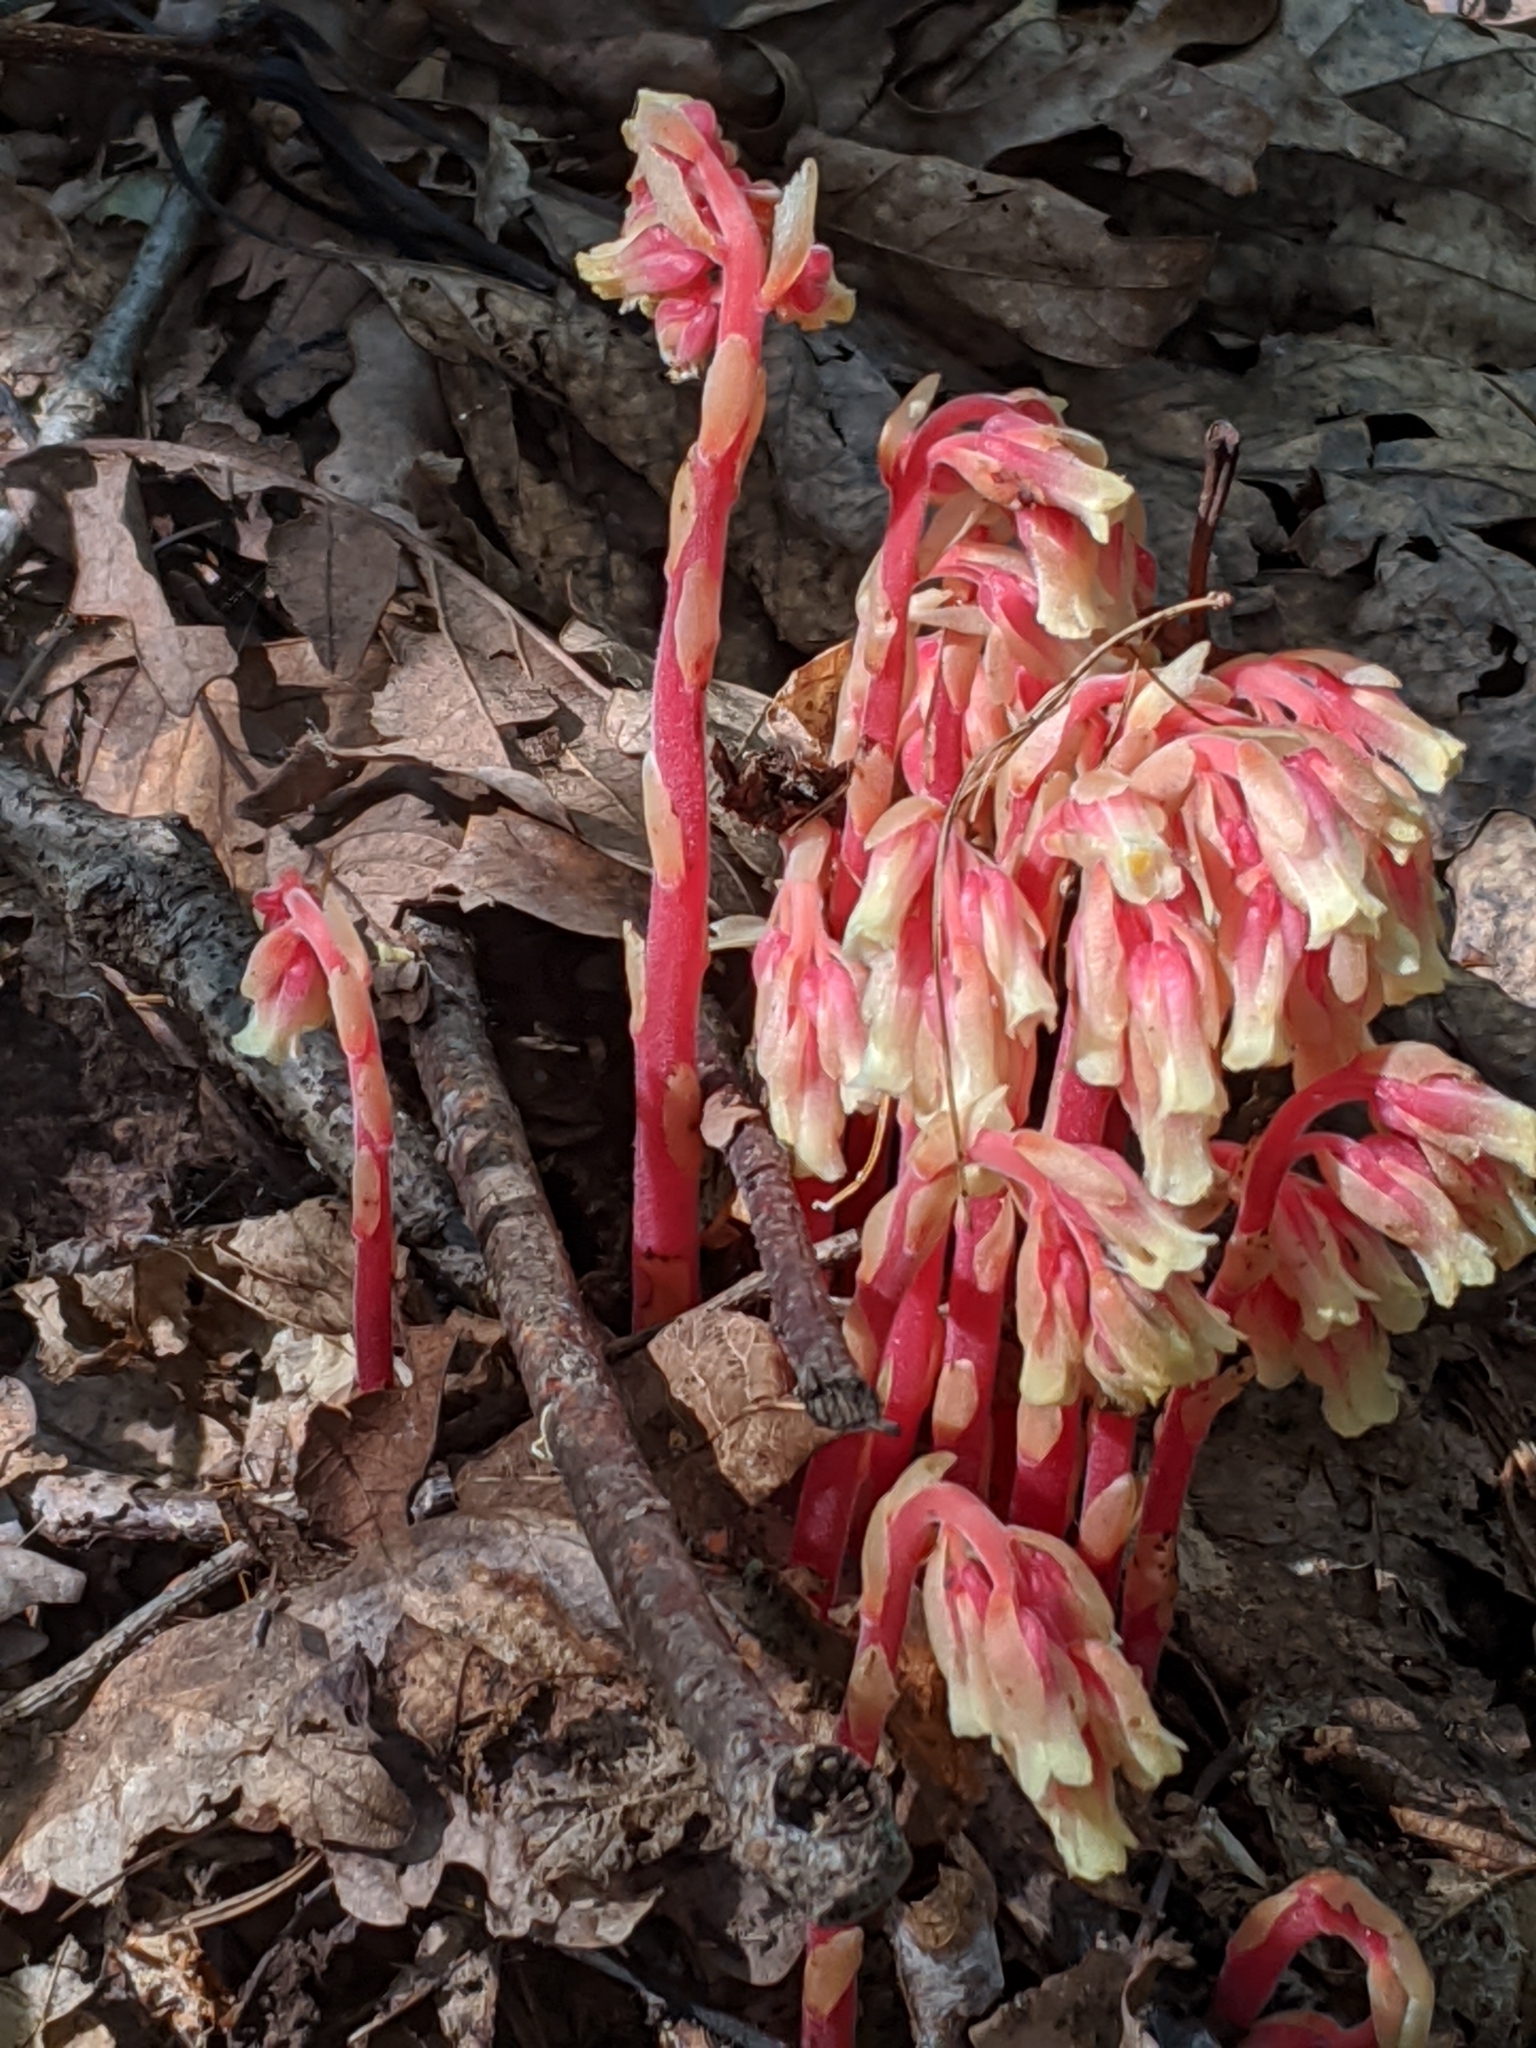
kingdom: Plantae
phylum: Tracheophyta
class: Magnoliopsida
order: Ericales
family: Ericaceae
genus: Hypopitys
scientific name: Hypopitys monotropa
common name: Yellow bird's-nest
